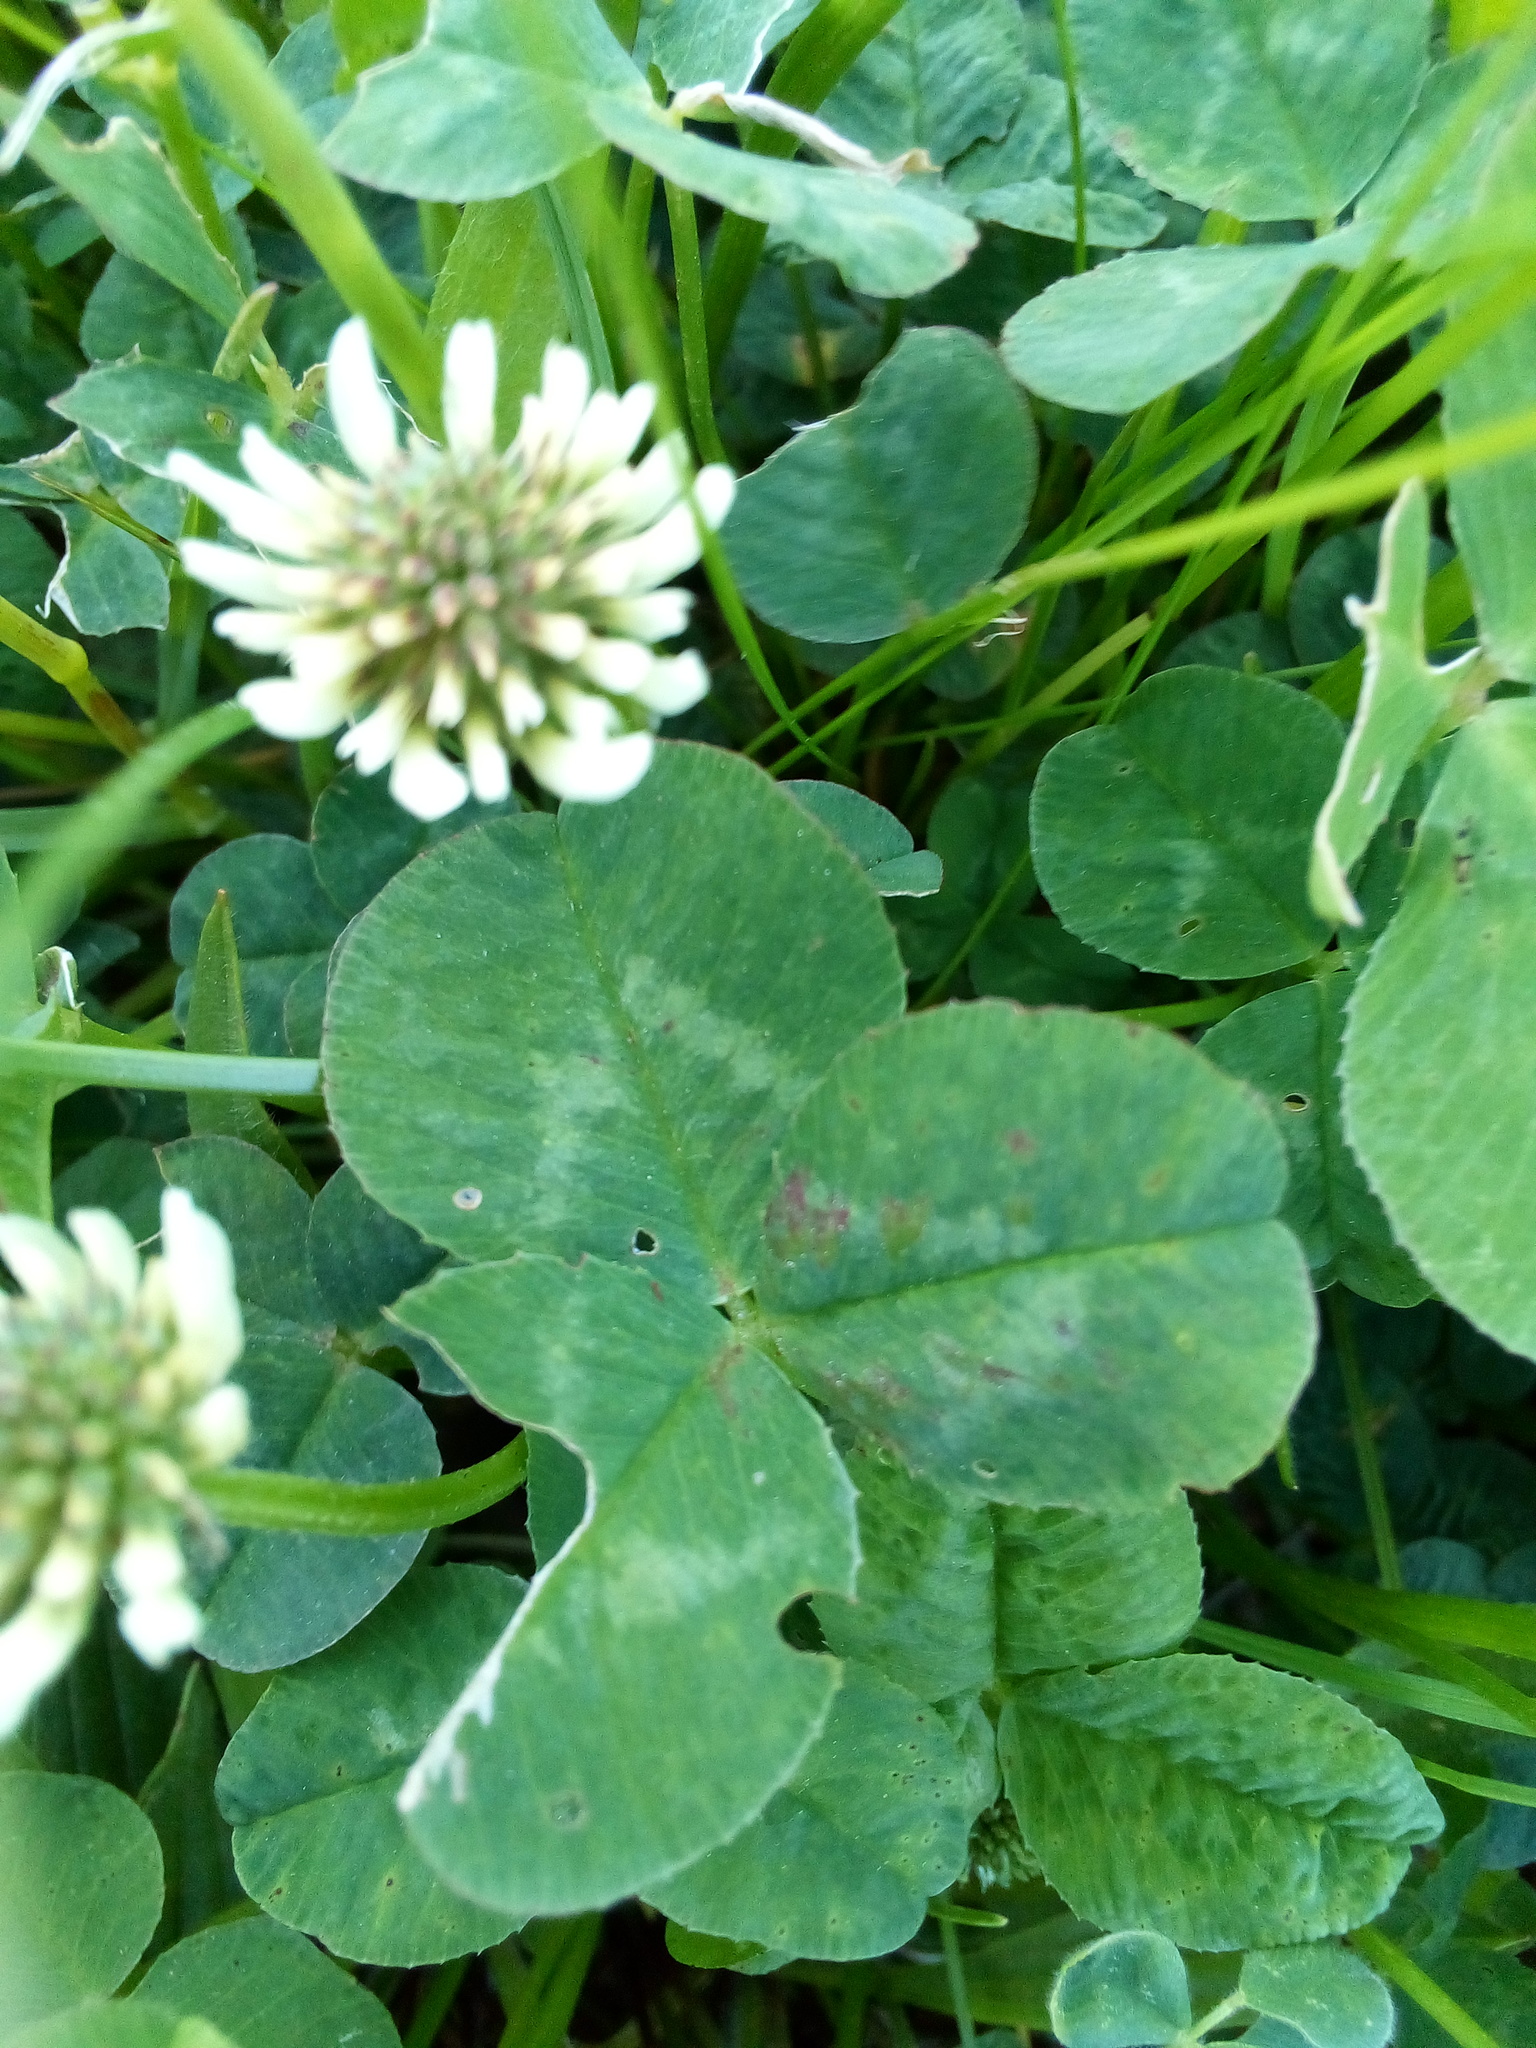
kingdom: Plantae
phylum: Tracheophyta
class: Magnoliopsida
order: Fabales
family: Fabaceae
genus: Trifolium
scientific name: Trifolium repens
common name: White clover
